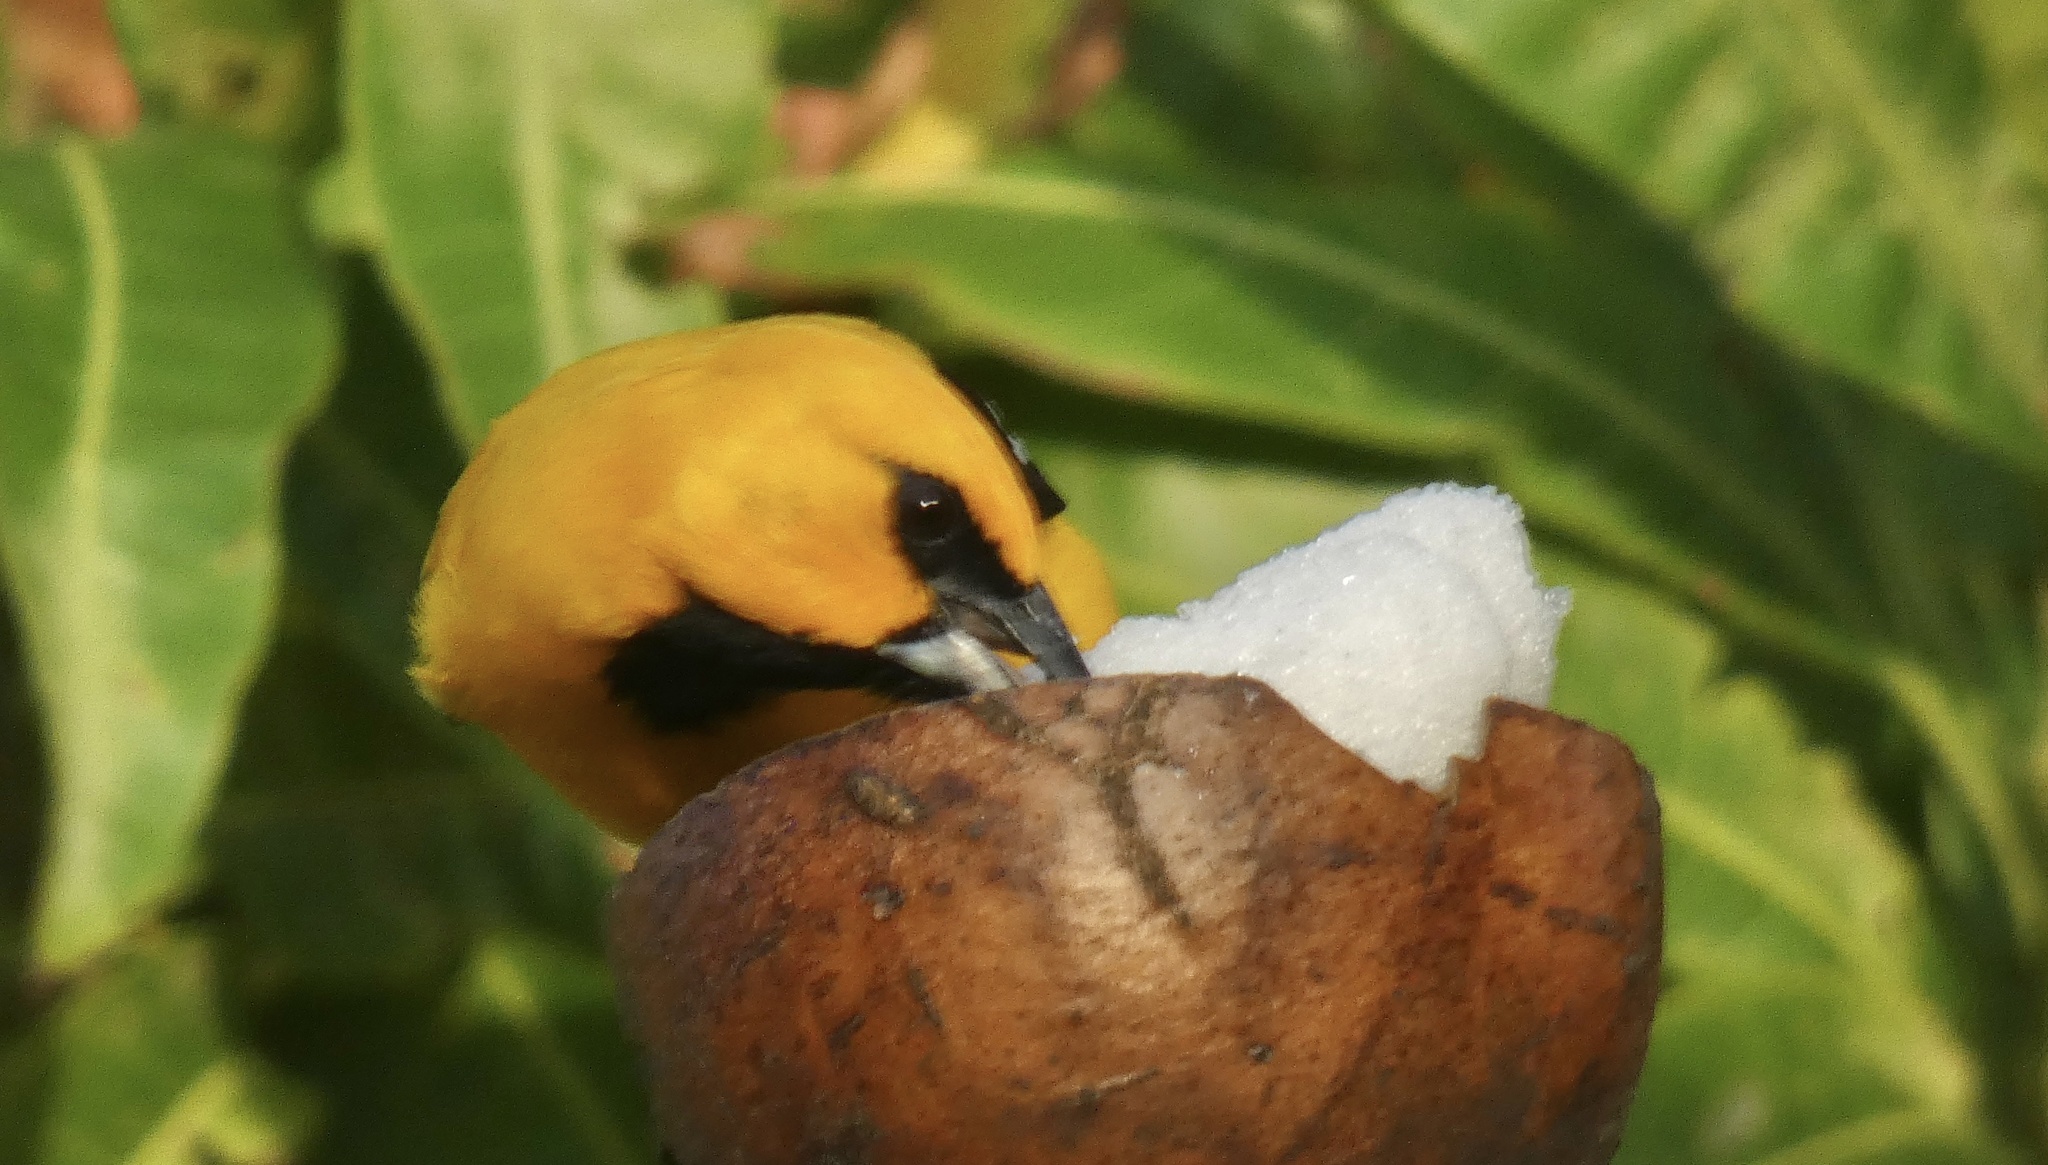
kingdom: Animalia
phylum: Chordata
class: Aves
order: Passeriformes
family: Icteridae
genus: Icterus
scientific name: Icterus nigrogularis
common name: Yellow oriole
